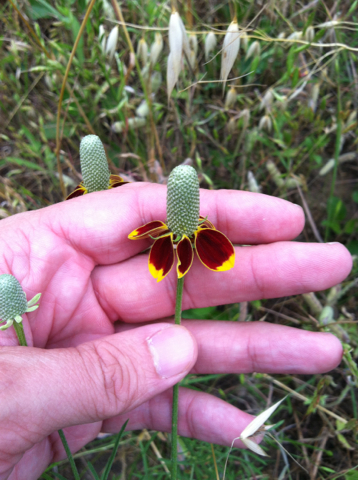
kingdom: Plantae
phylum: Tracheophyta
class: Magnoliopsida
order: Asterales
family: Asteraceae
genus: Ratibida
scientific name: Ratibida columnifera
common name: Prairie coneflower
